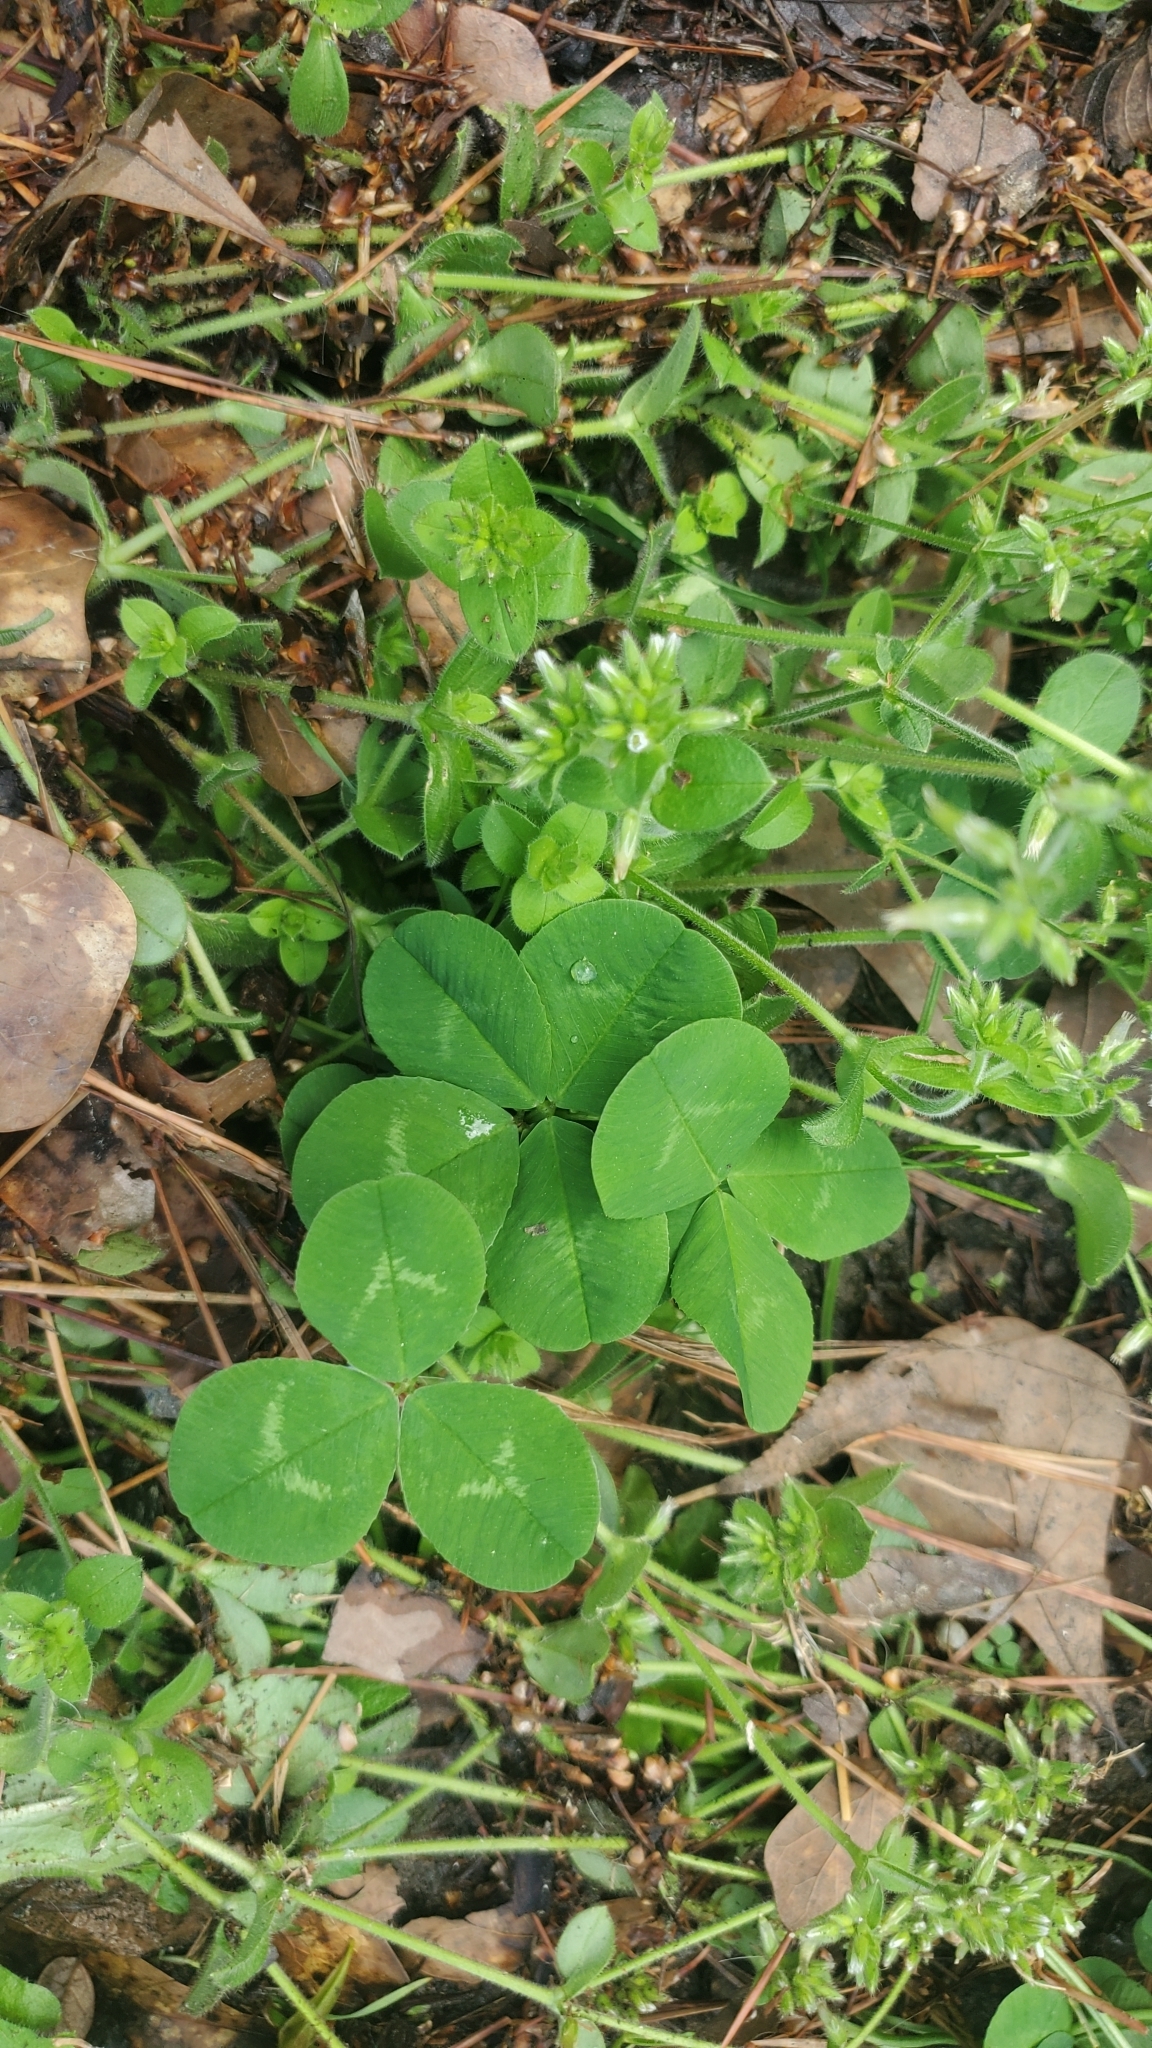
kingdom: Plantae
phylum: Tracheophyta
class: Magnoliopsida
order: Fabales
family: Fabaceae
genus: Trifolium
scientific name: Trifolium repens
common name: White clover
